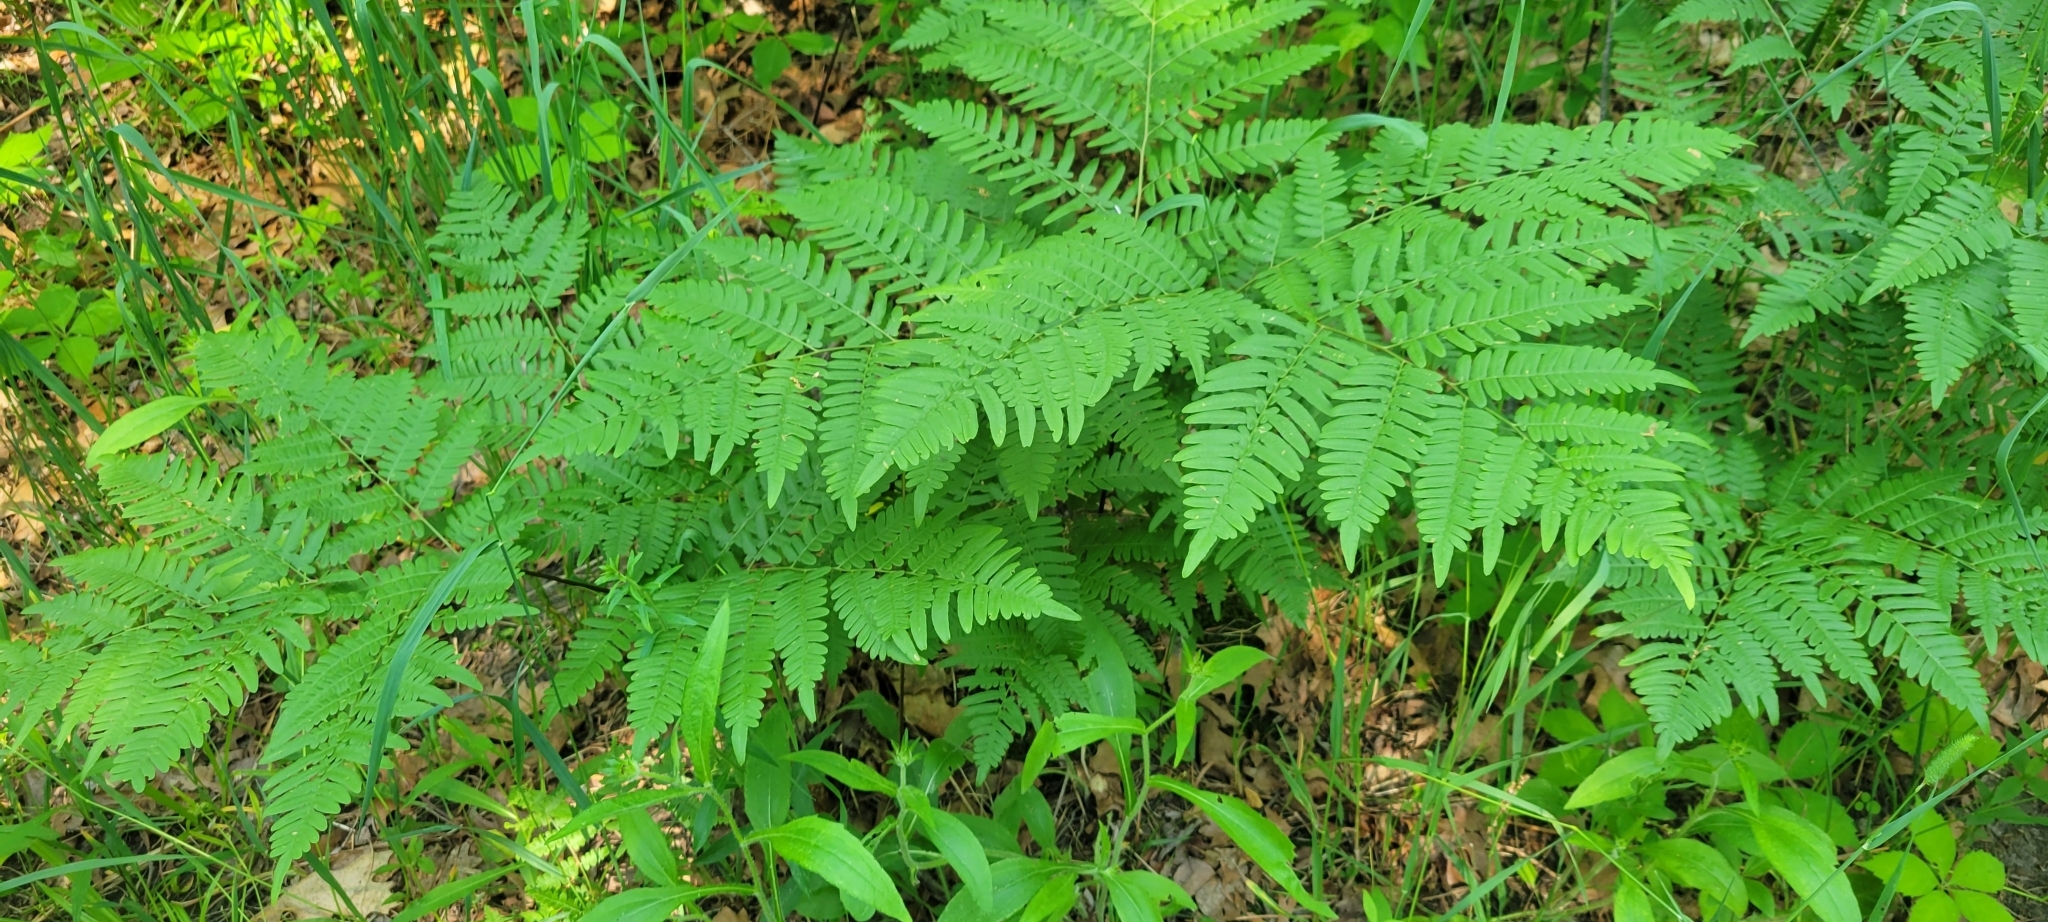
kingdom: Plantae
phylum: Tracheophyta
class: Polypodiopsida
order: Polypodiales
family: Dennstaedtiaceae
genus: Pteridium
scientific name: Pteridium aquilinum
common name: Bracken
